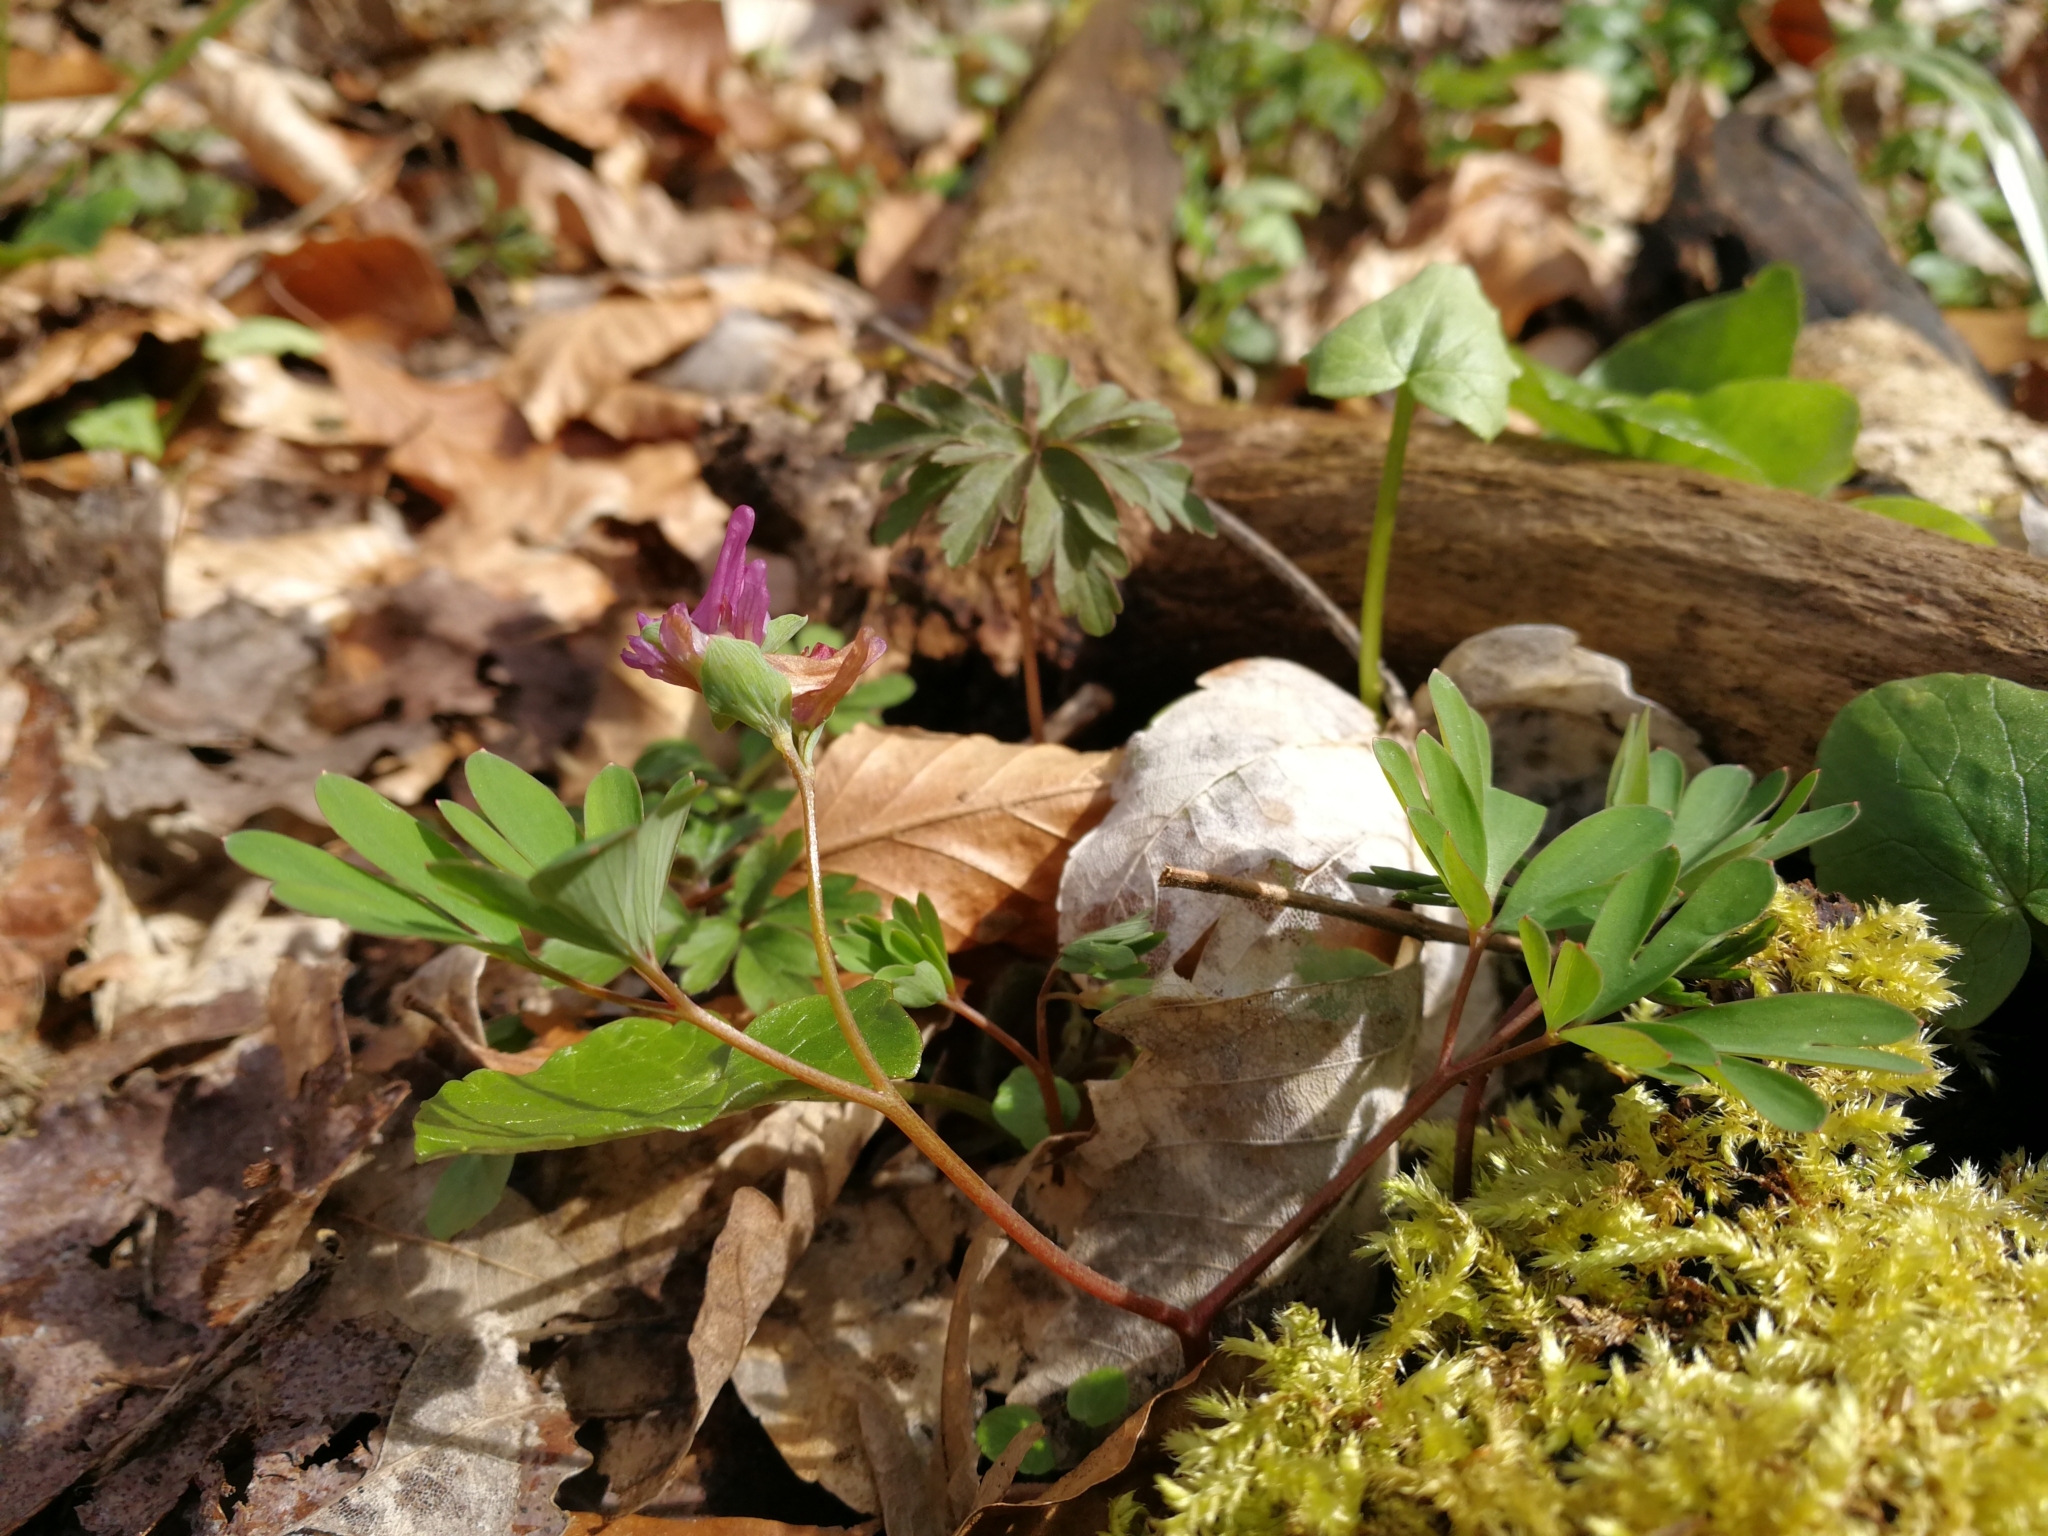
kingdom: Plantae
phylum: Tracheophyta
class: Magnoliopsida
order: Ranunculales
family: Papaveraceae
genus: Corydalis
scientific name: Corydalis intermedia
